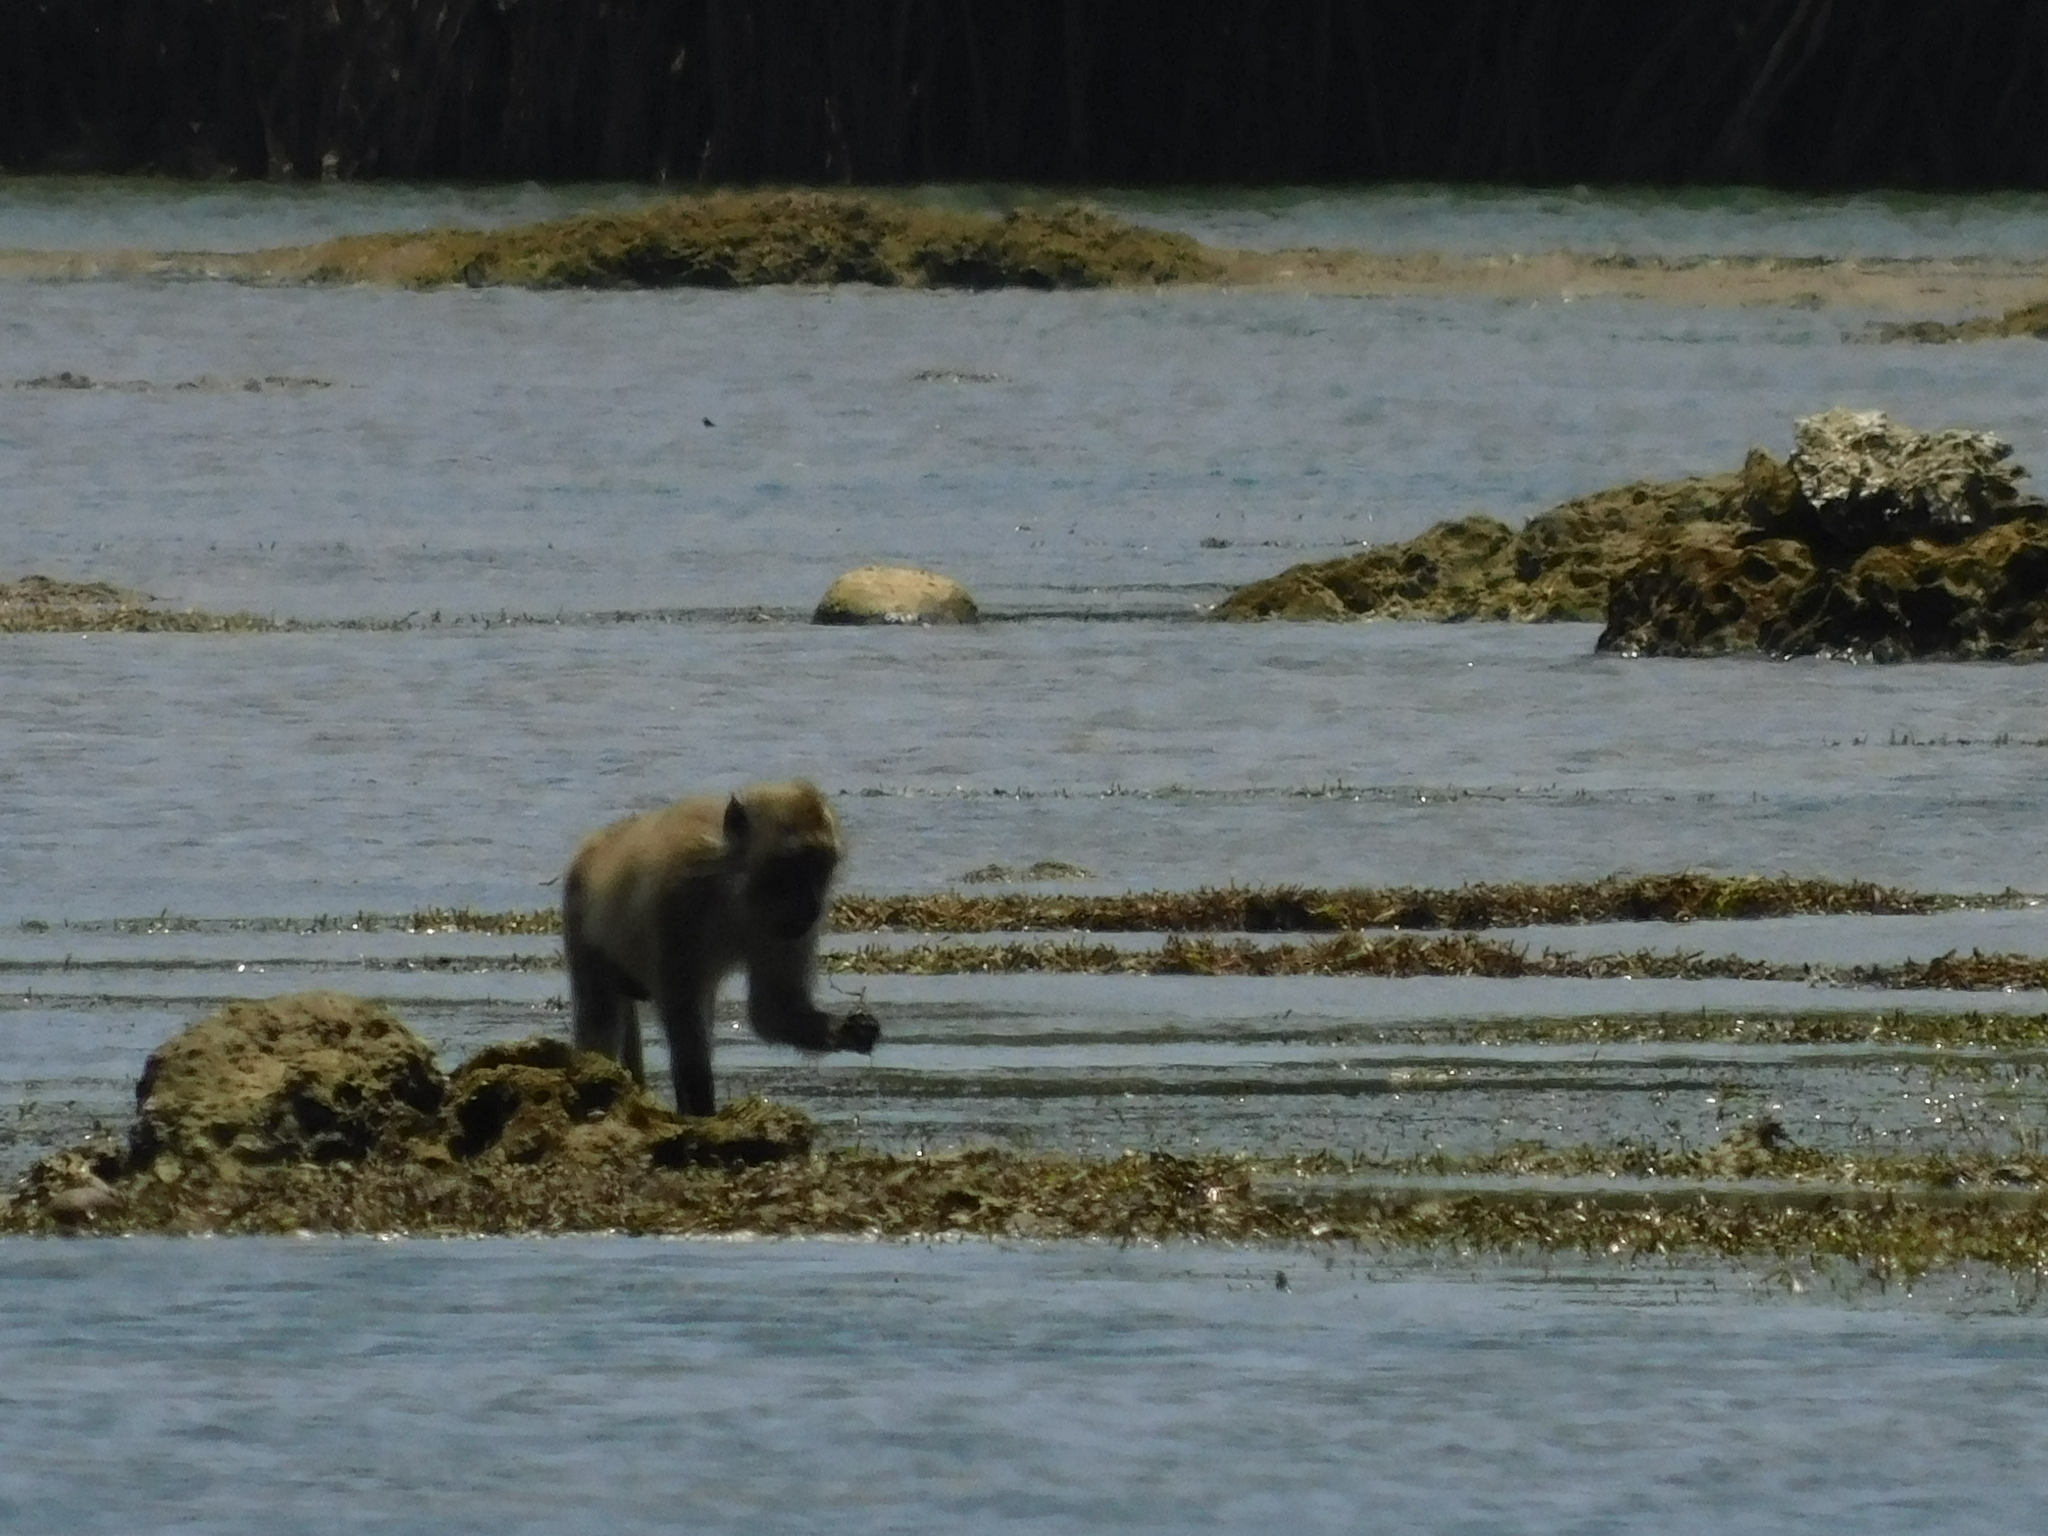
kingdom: Animalia
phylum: Chordata
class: Mammalia
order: Primates
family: Cercopithecidae
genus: Macaca
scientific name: Macaca fascicularis
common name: Crab-eating macaque
